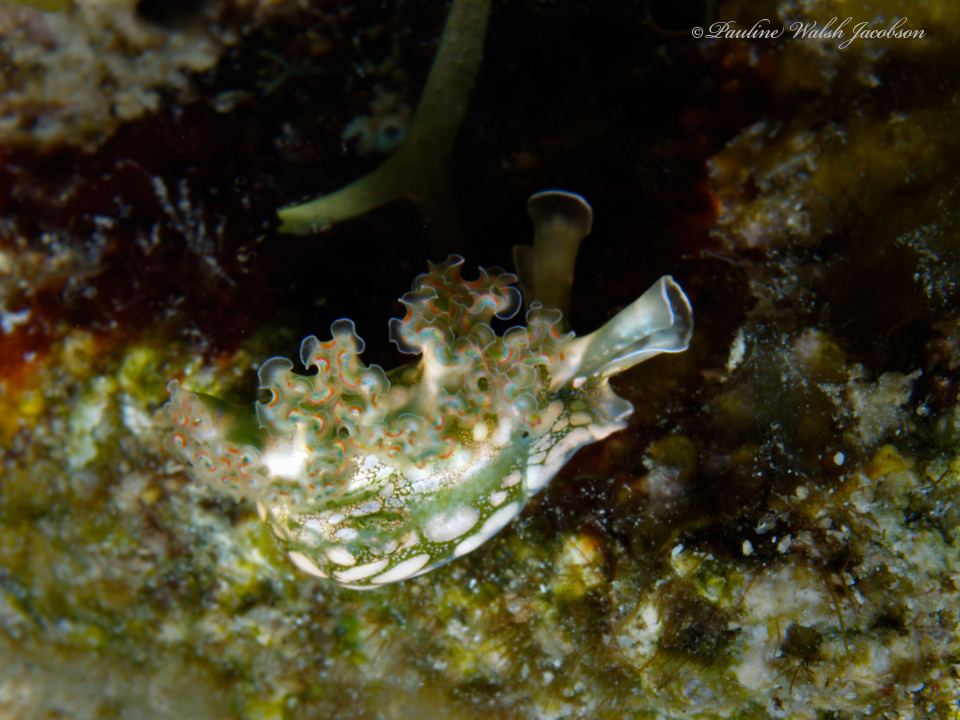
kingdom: Animalia
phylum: Mollusca
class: Gastropoda
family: Plakobranchidae
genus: Elysia
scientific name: Elysia crispata
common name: Lettuce slug
